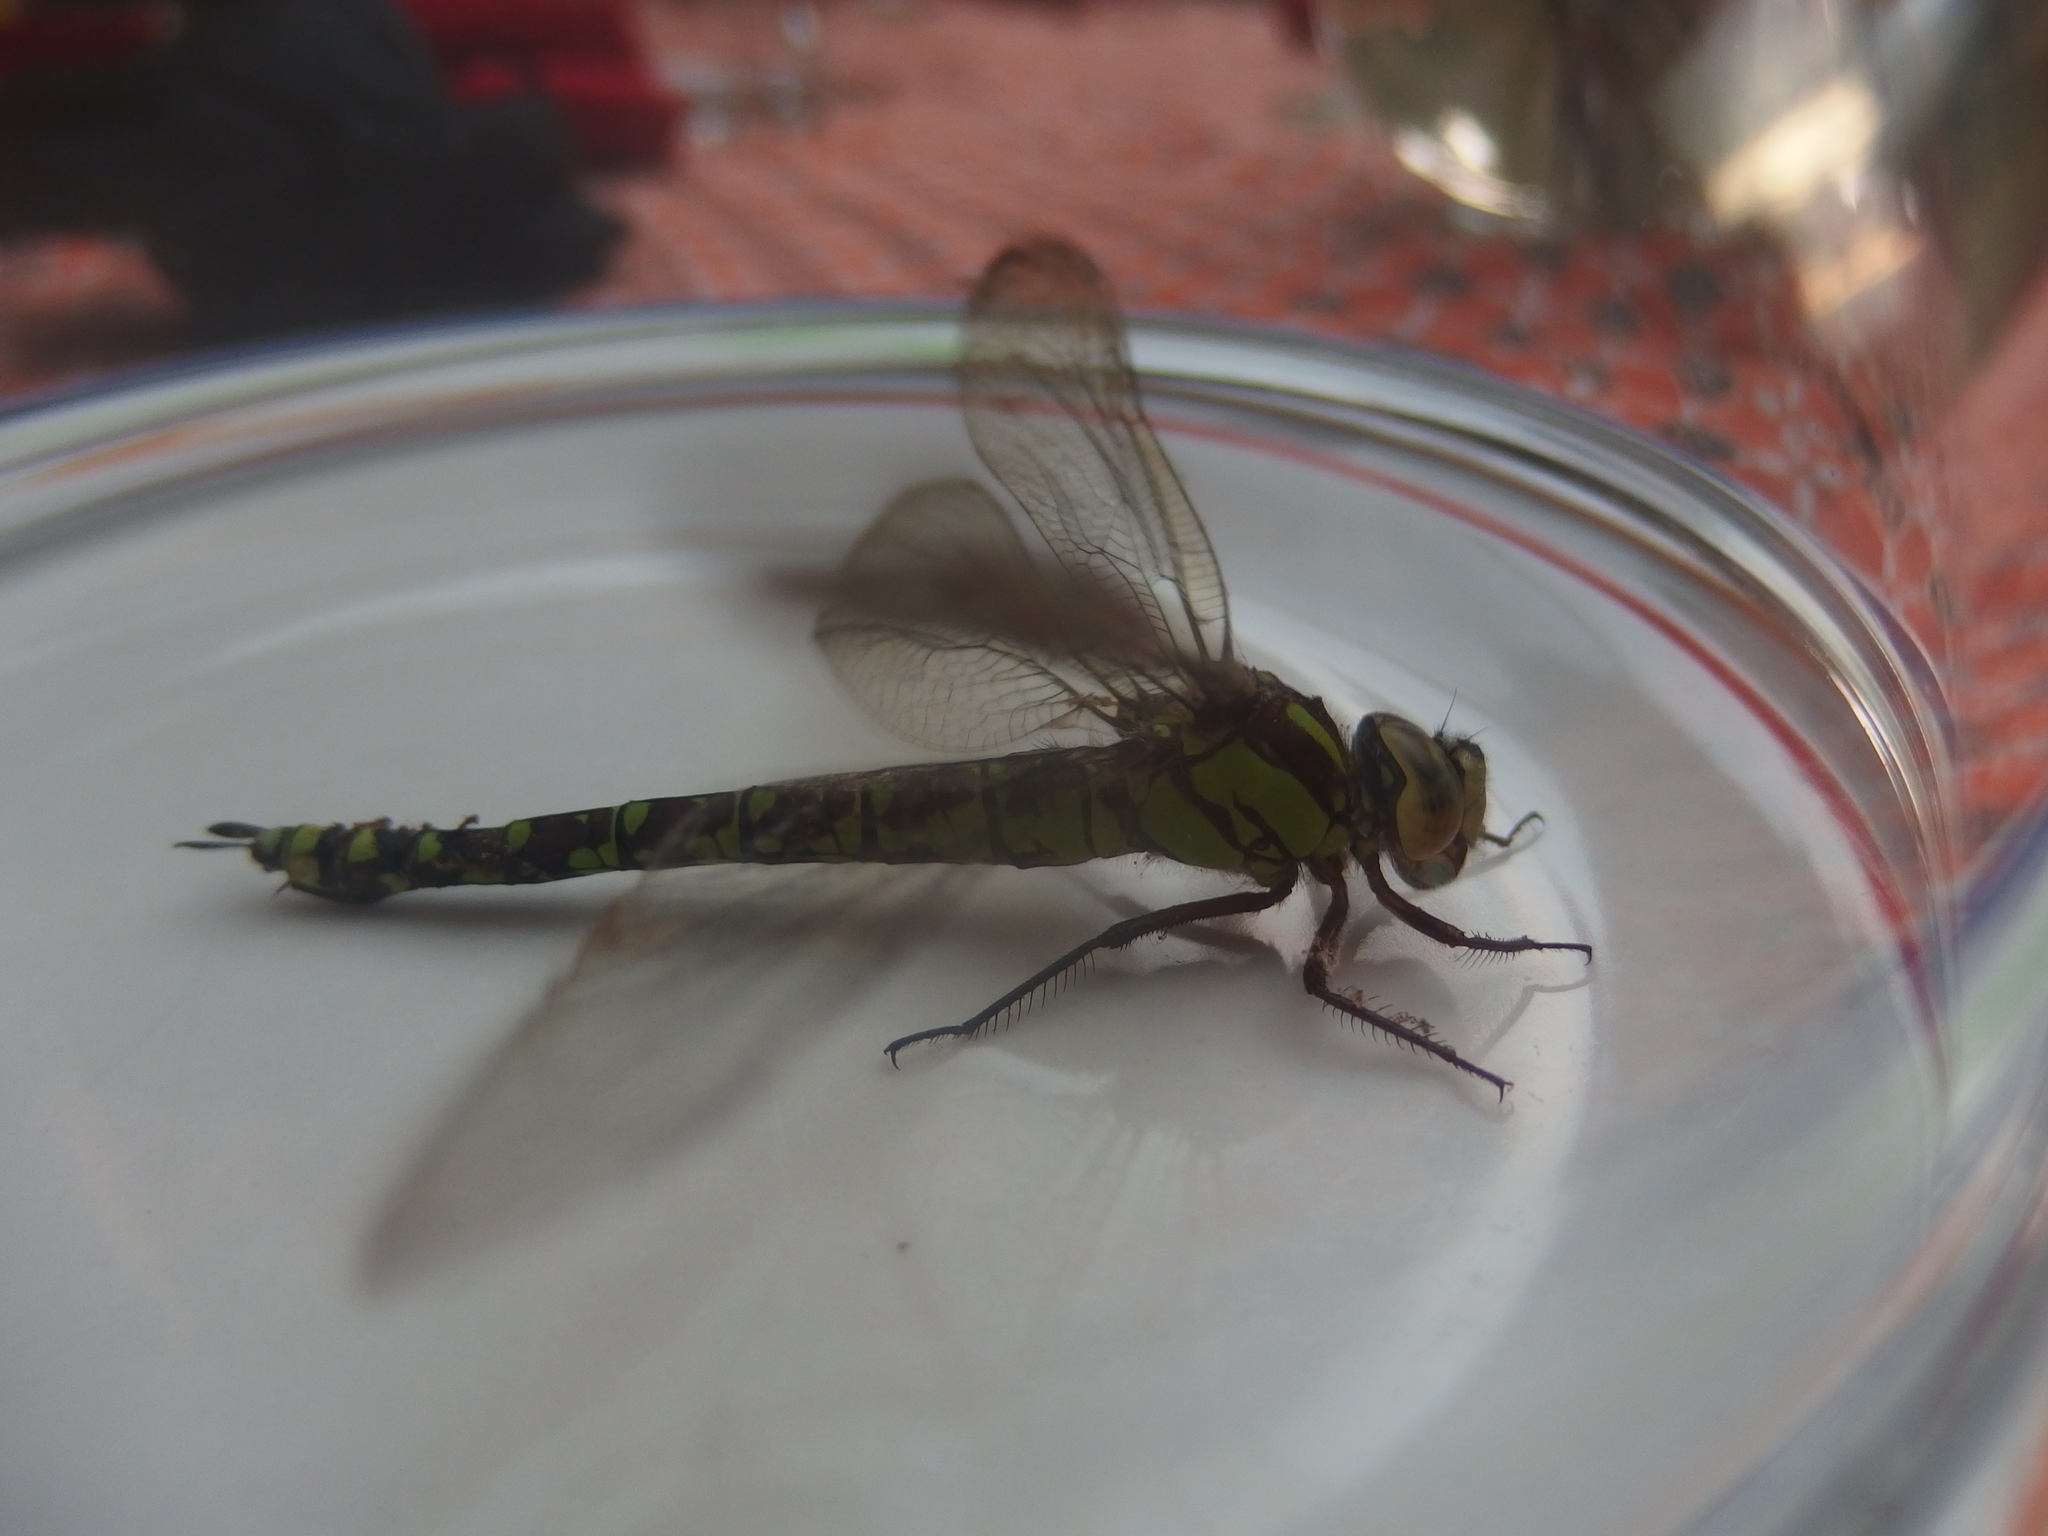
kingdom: Animalia
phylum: Arthropoda
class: Insecta
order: Odonata
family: Aeshnidae
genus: Aeshna
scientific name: Aeshna cyanea
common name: Southern hawker
